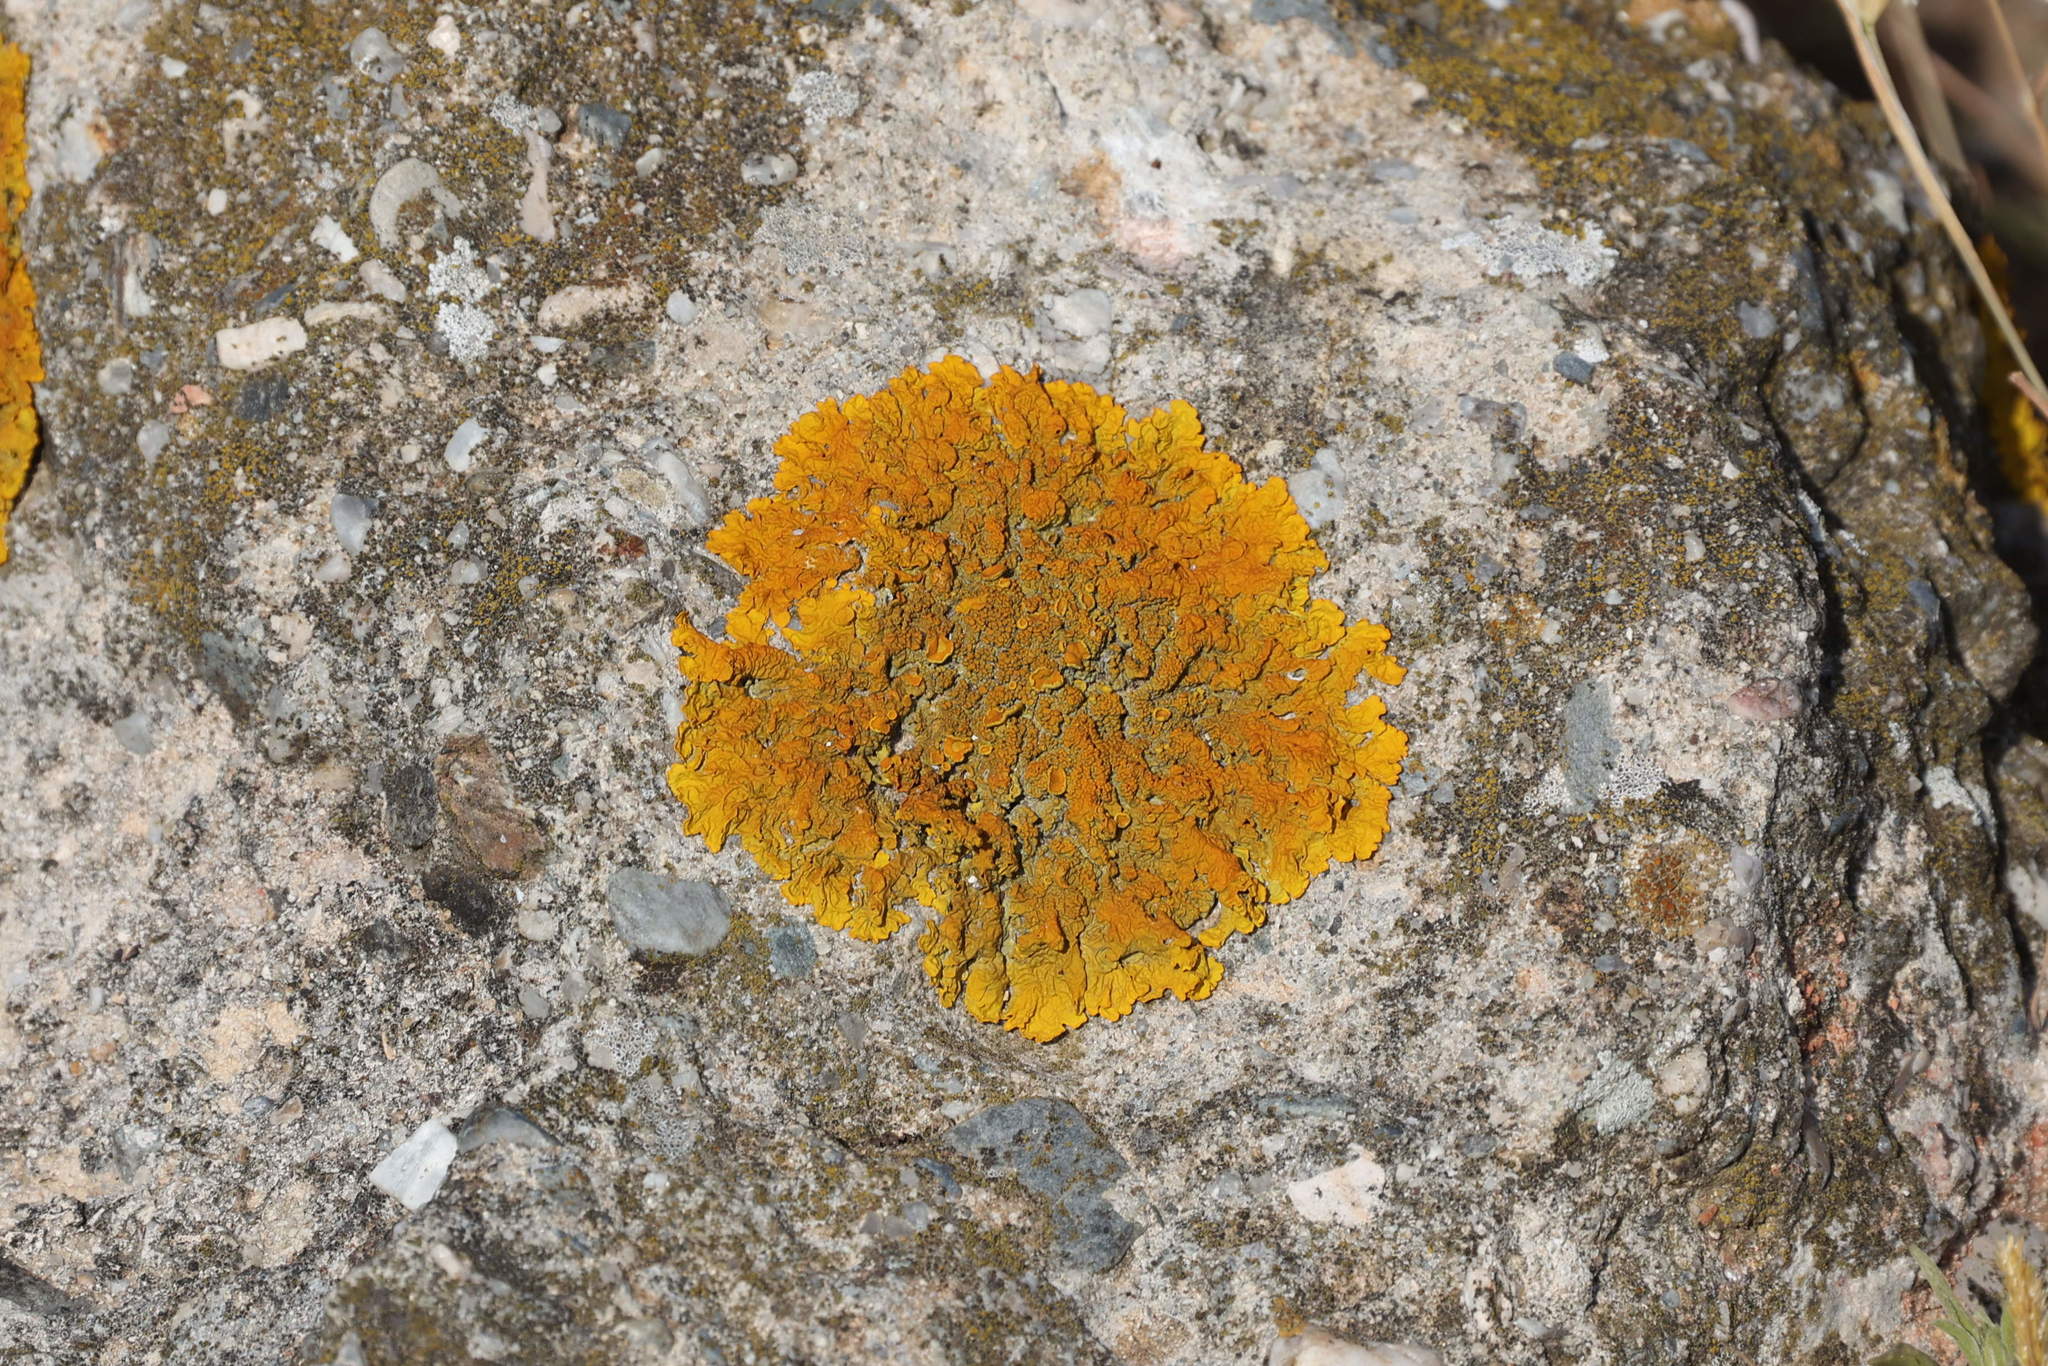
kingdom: Fungi
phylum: Ascomycota
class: Lecanoromycetes
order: Teloschistales
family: Teloschistaceae
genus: Xanthoria
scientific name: Xanthoria calcicola
